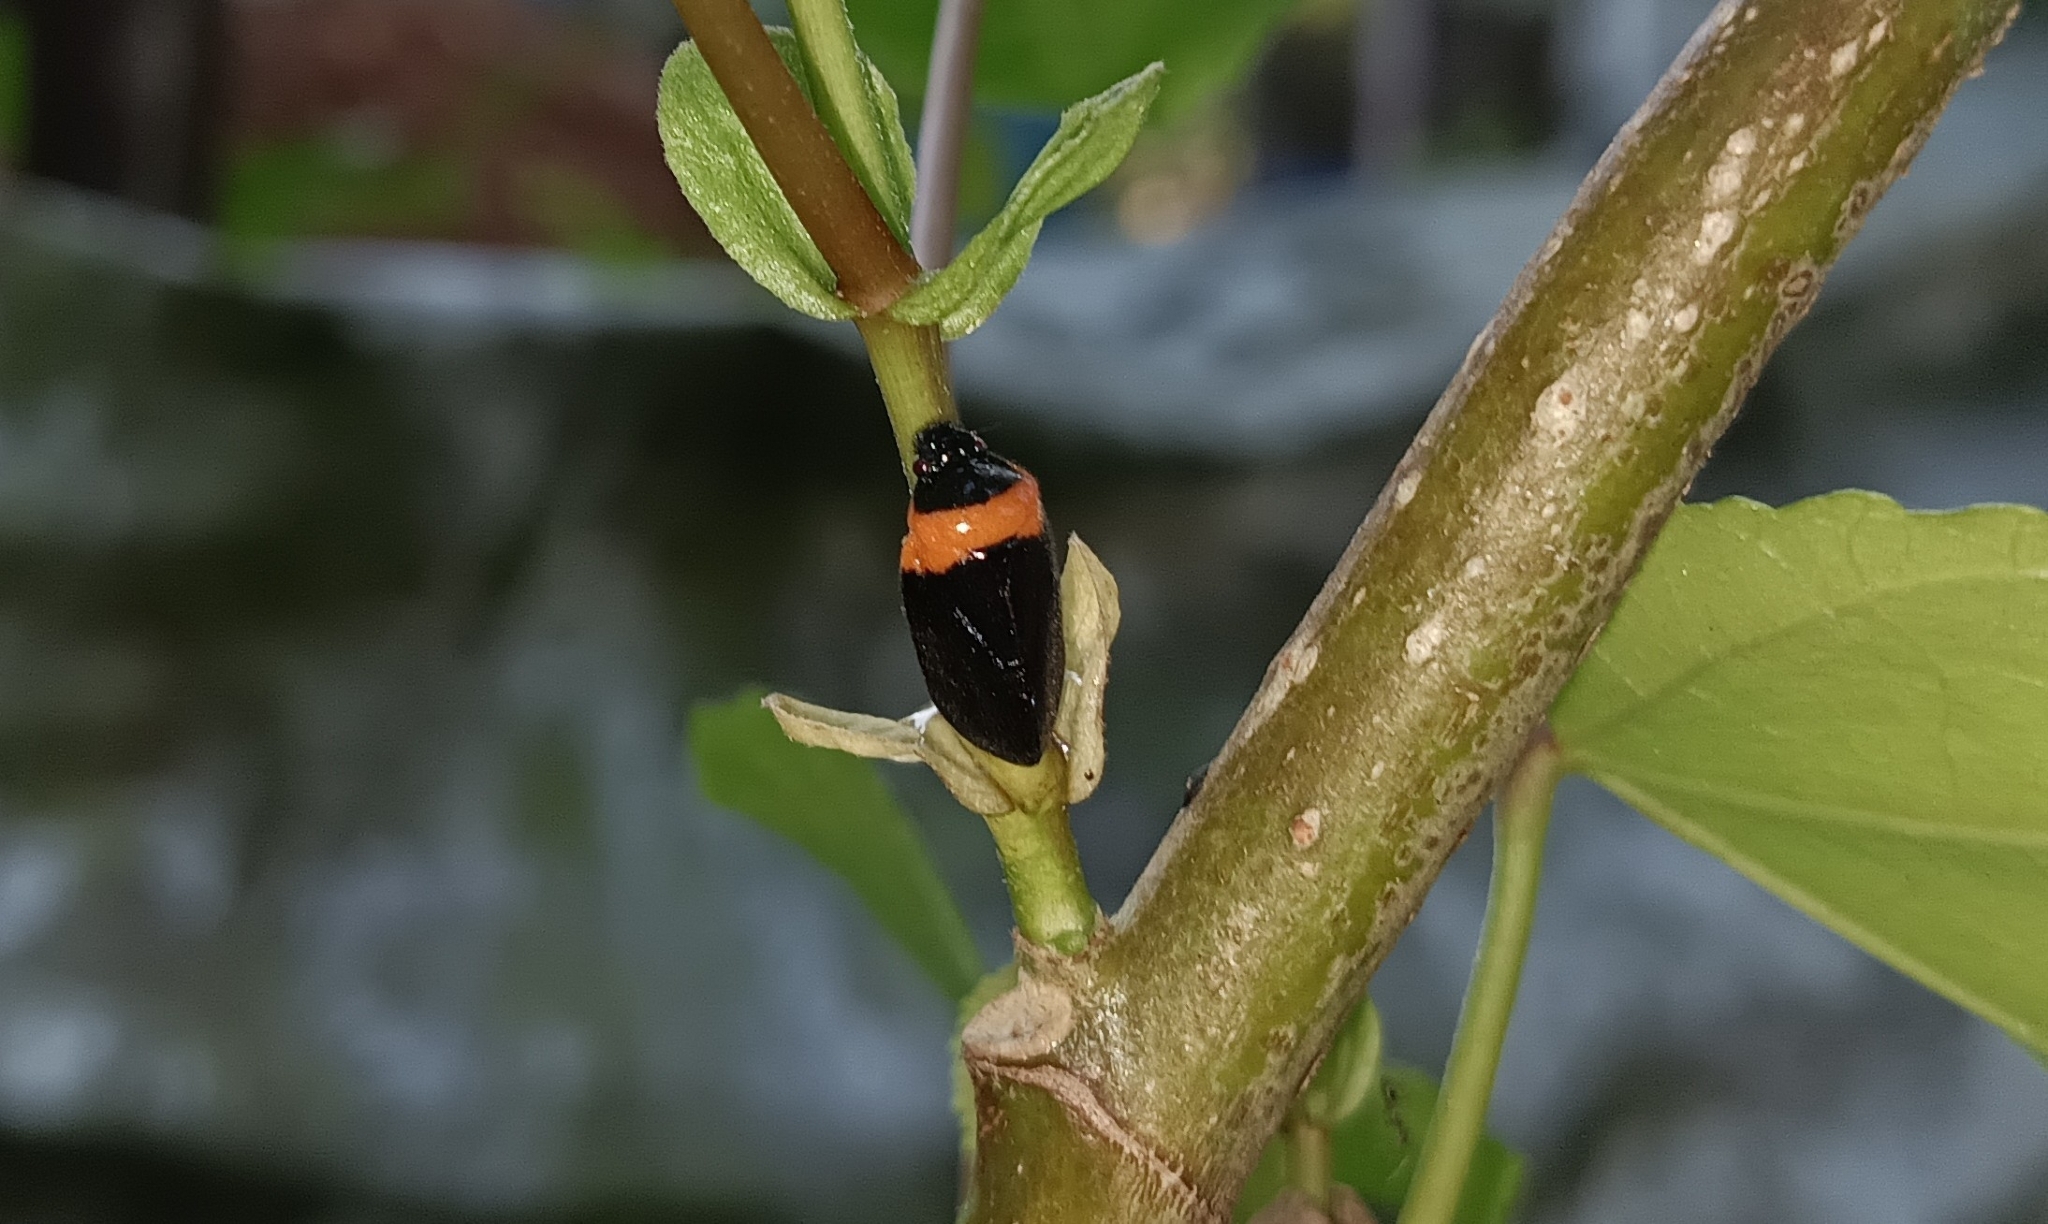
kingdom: Animalia
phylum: Arthropoda
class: Insecta
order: Hemiptera
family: Cercopidae
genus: Phymatostetha
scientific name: Phymatostetha deschampsi
